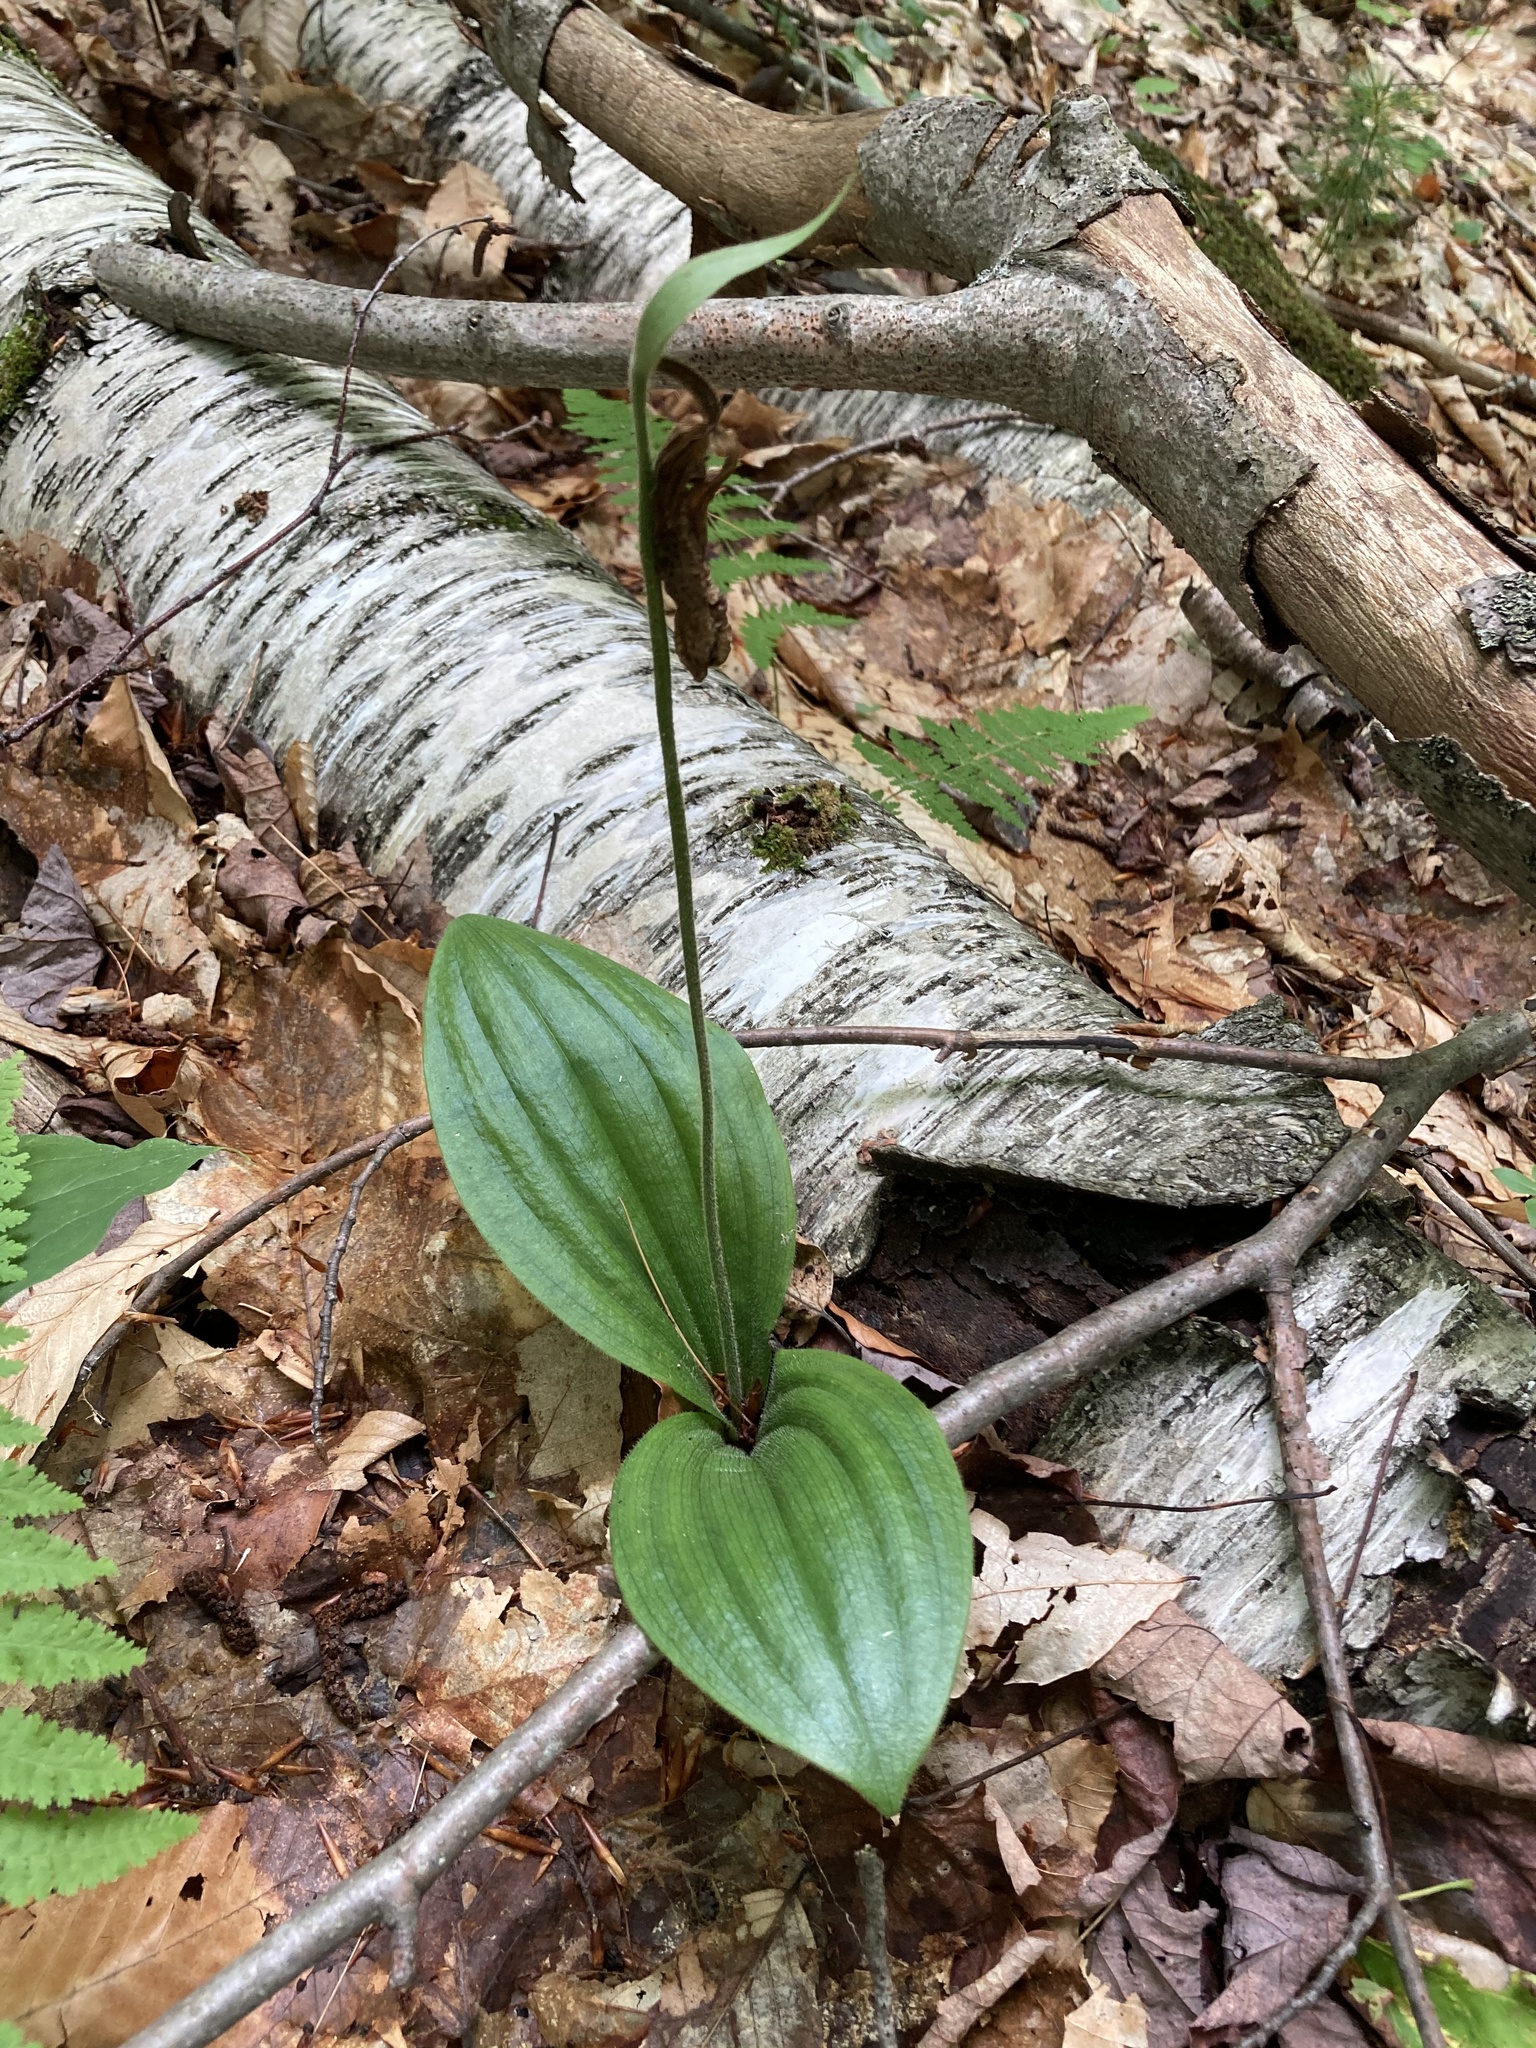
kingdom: Plantae
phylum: Tracheophyta
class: Liliopsida
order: Asparagales
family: Orchidaceae
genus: Cypripedium
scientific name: Cypripedium acaule
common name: Pink lady's-slipper
